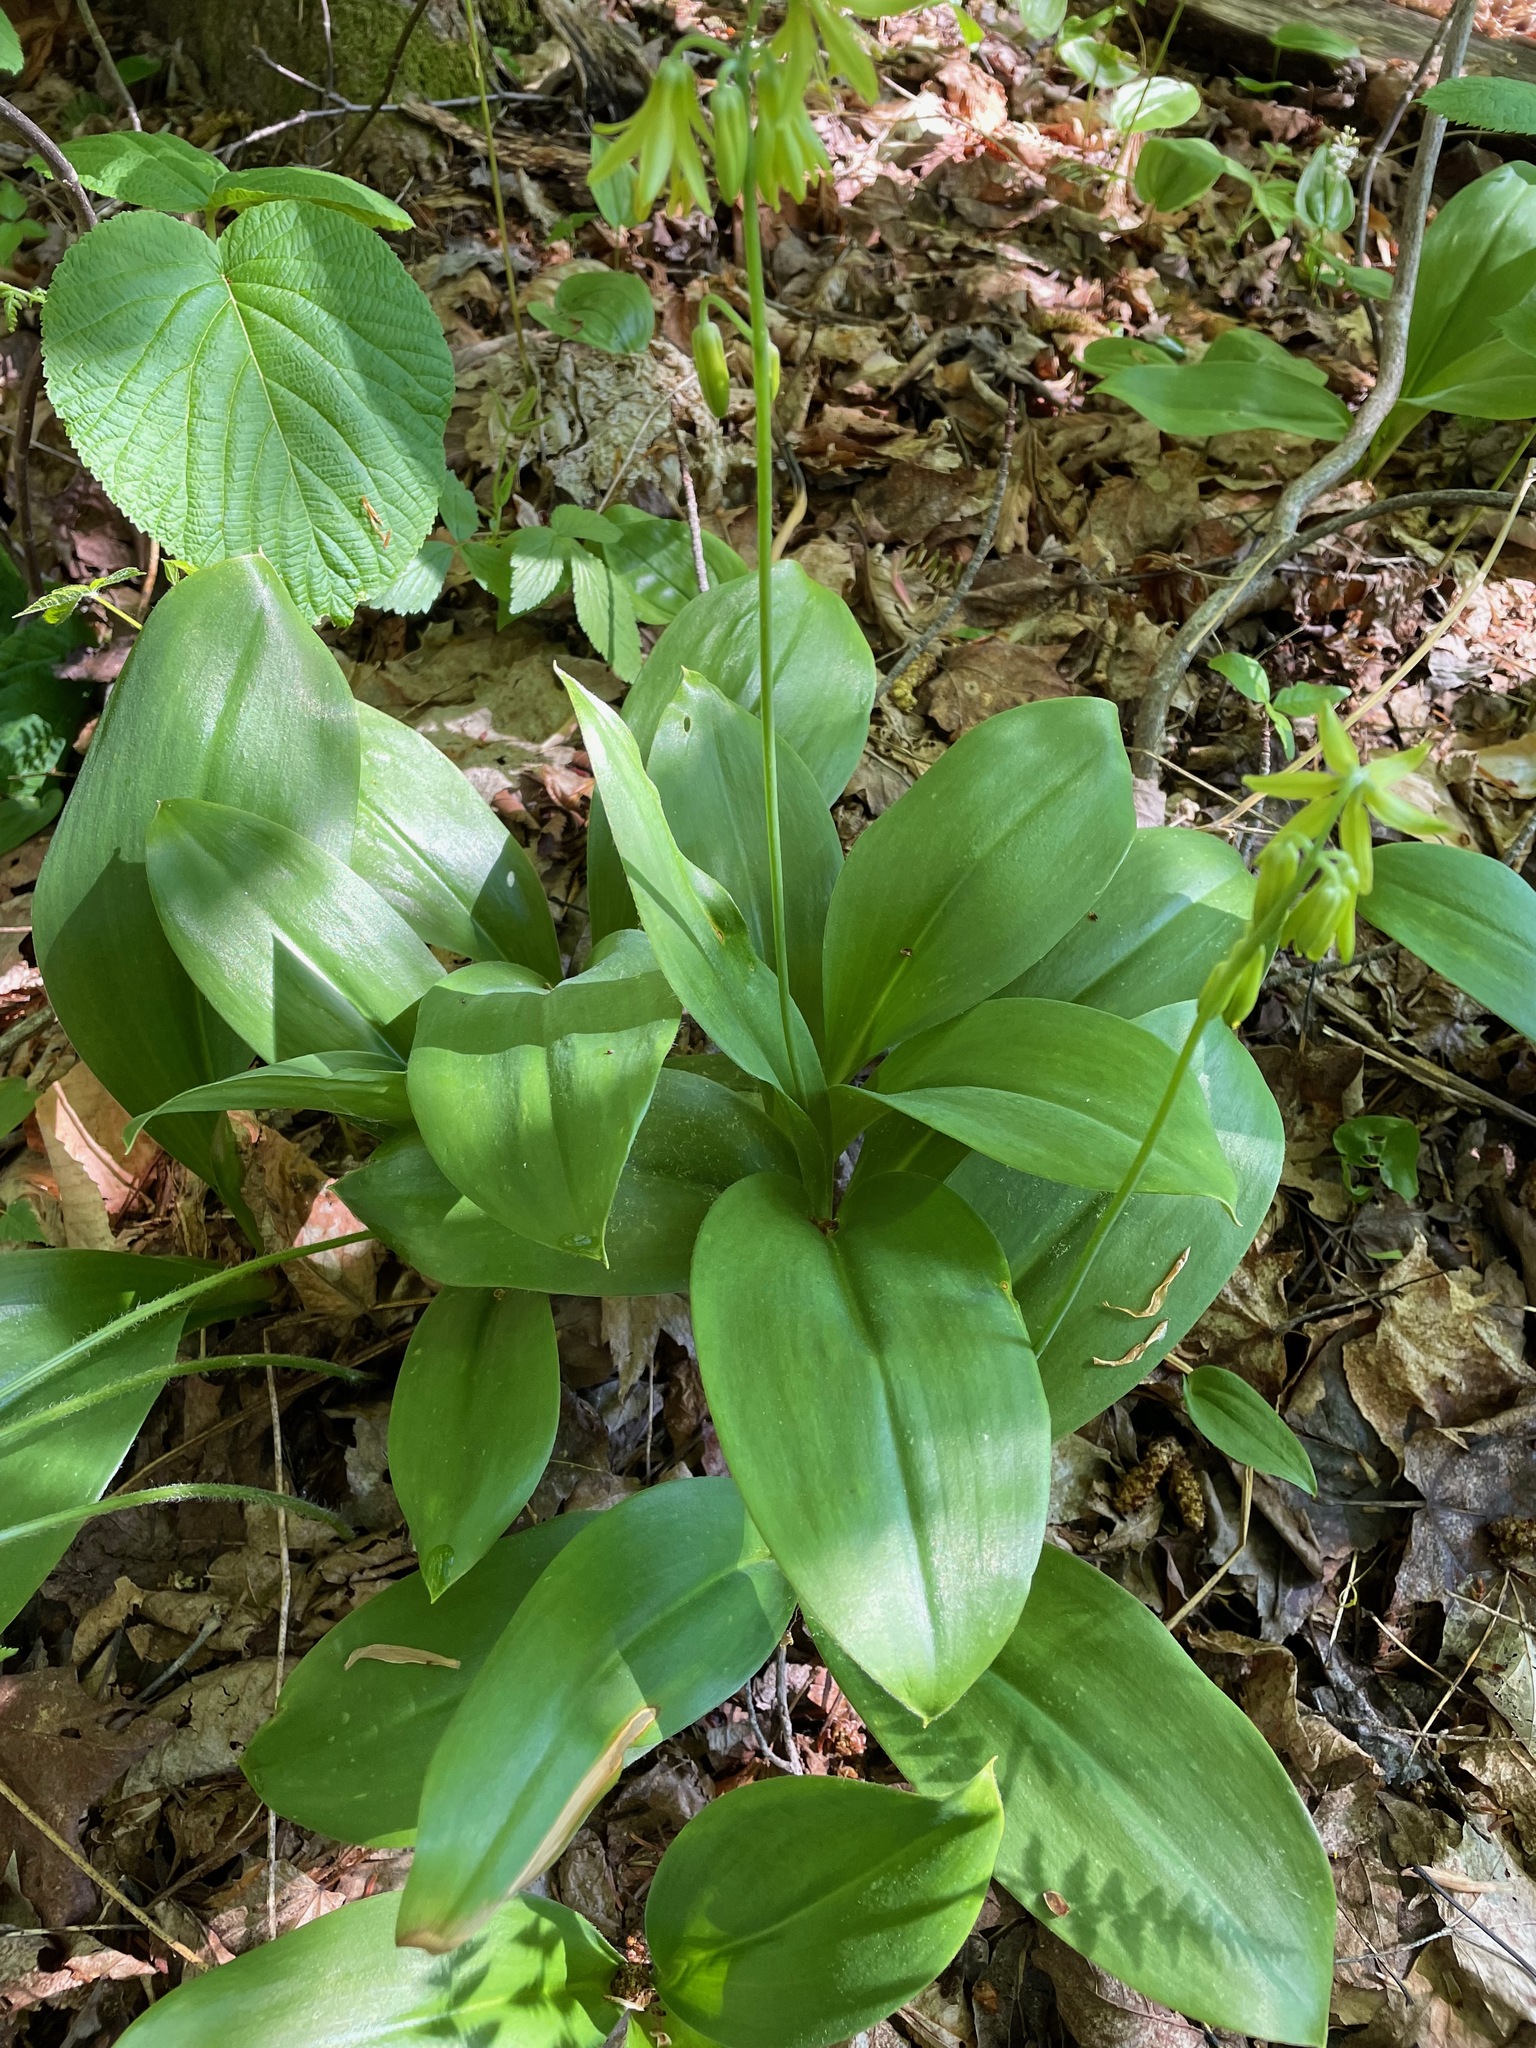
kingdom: Plantae
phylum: Tracheophyta
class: Liliopsida
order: Liliales
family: Liliaceae
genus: Clintonia
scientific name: Clintonia borealis
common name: Yellow clintonia
